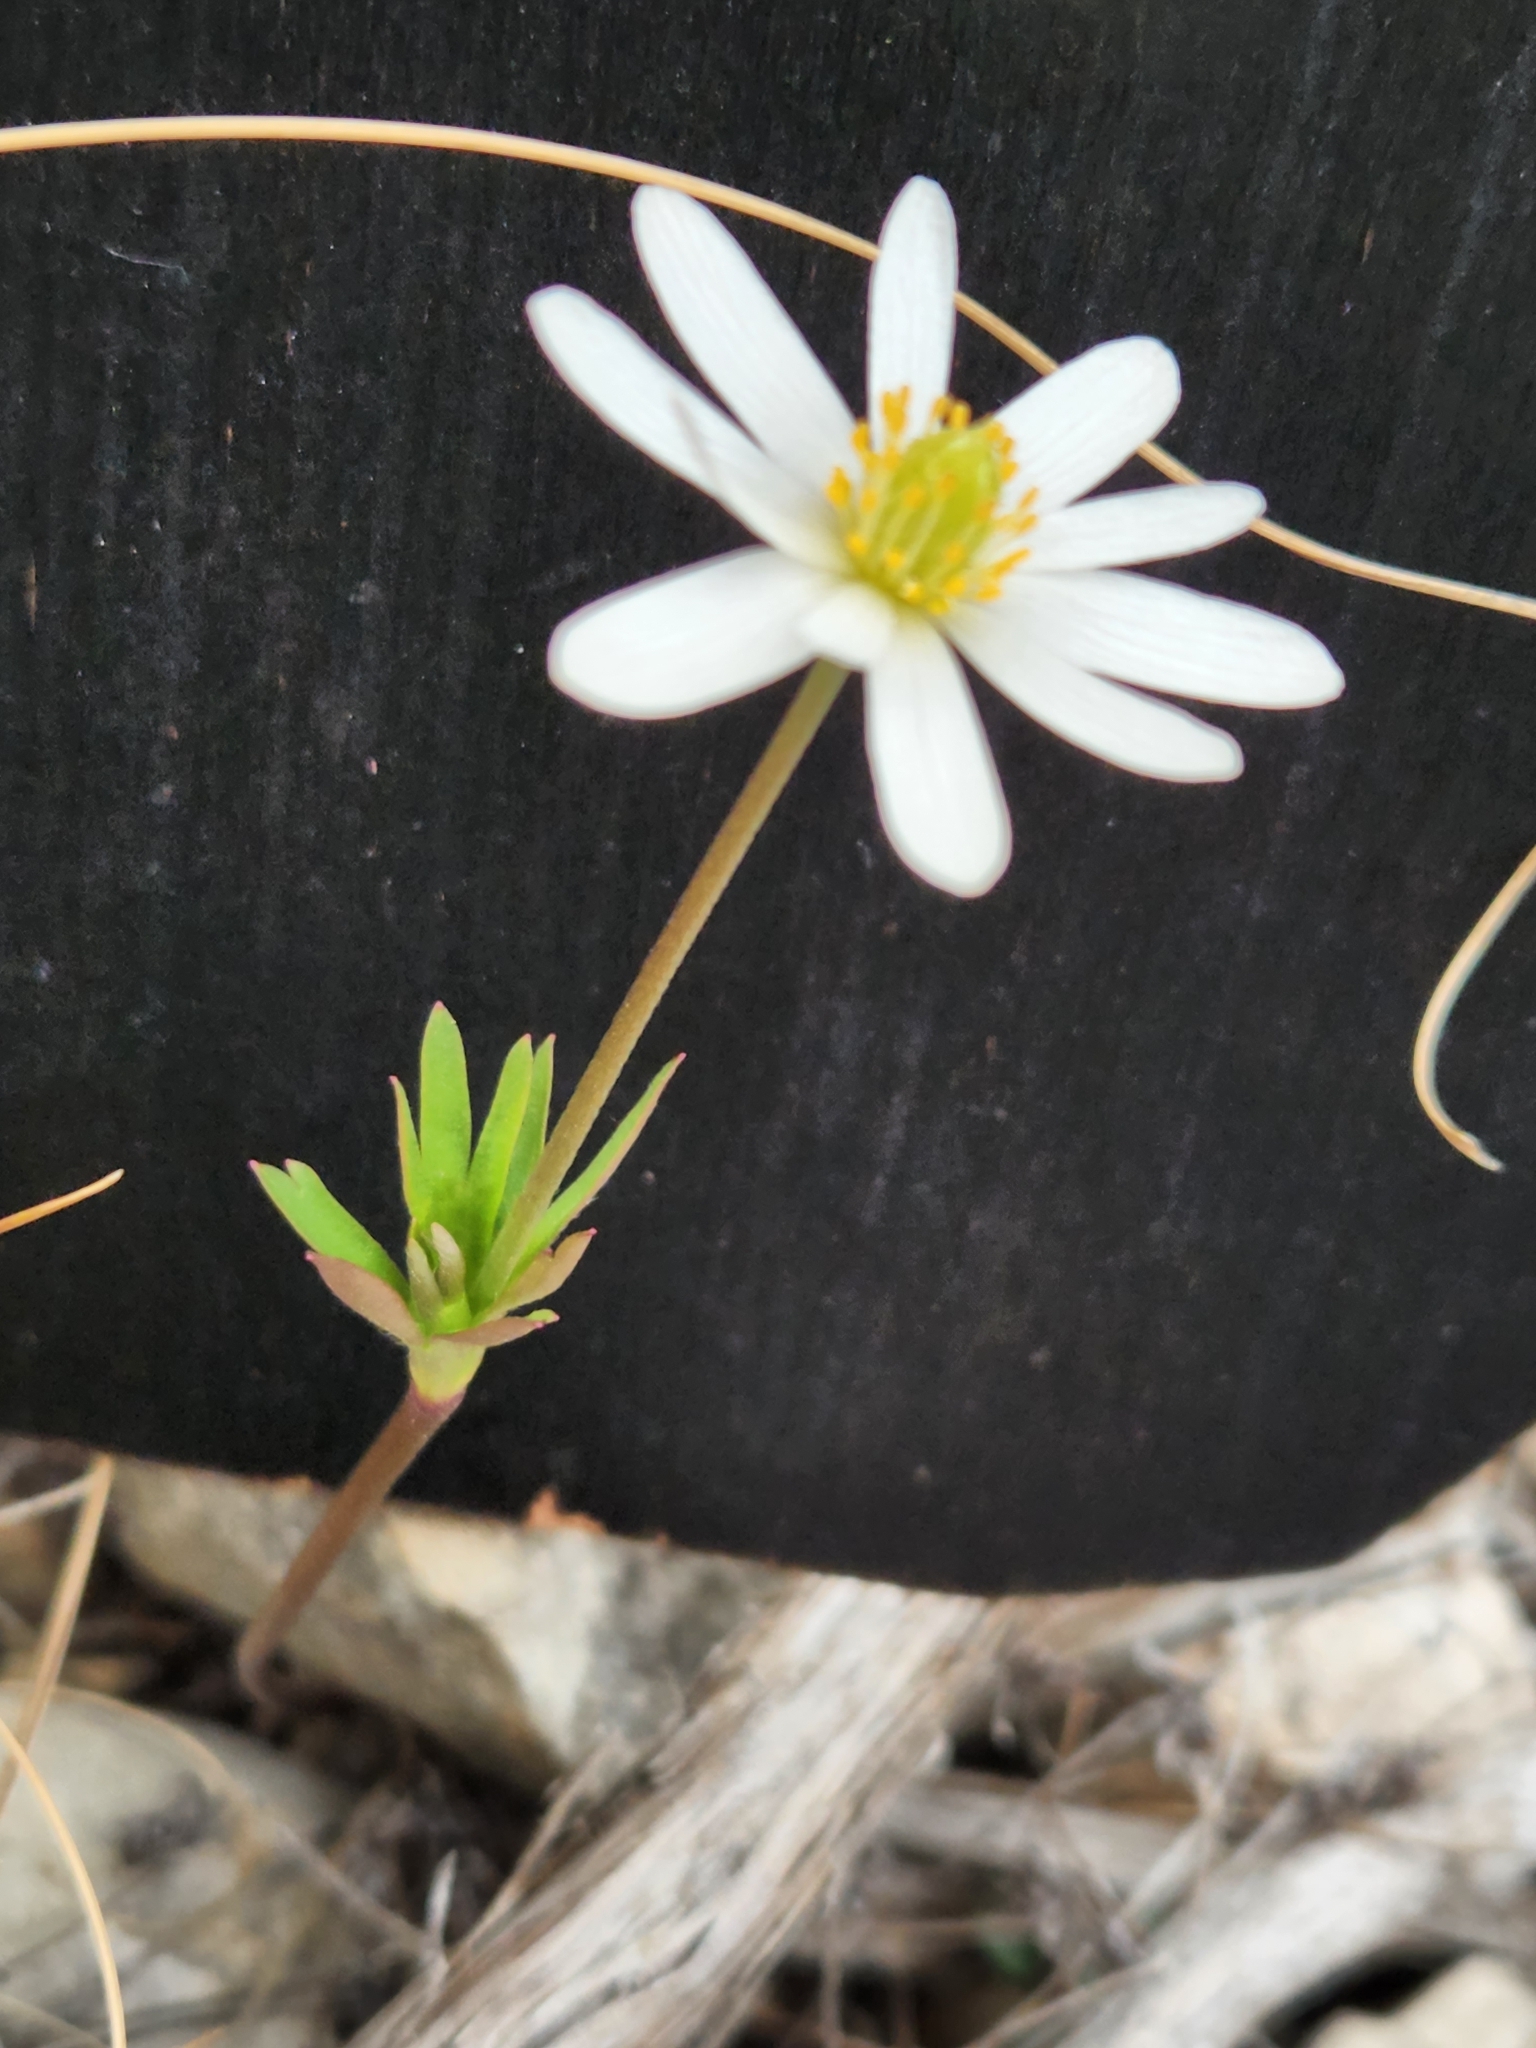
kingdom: Plantae
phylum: Tracheophyta
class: Magnoliopsida
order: Ranunculales
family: Ranunculaceae
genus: Anemone
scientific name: Anemone edwardsiana
